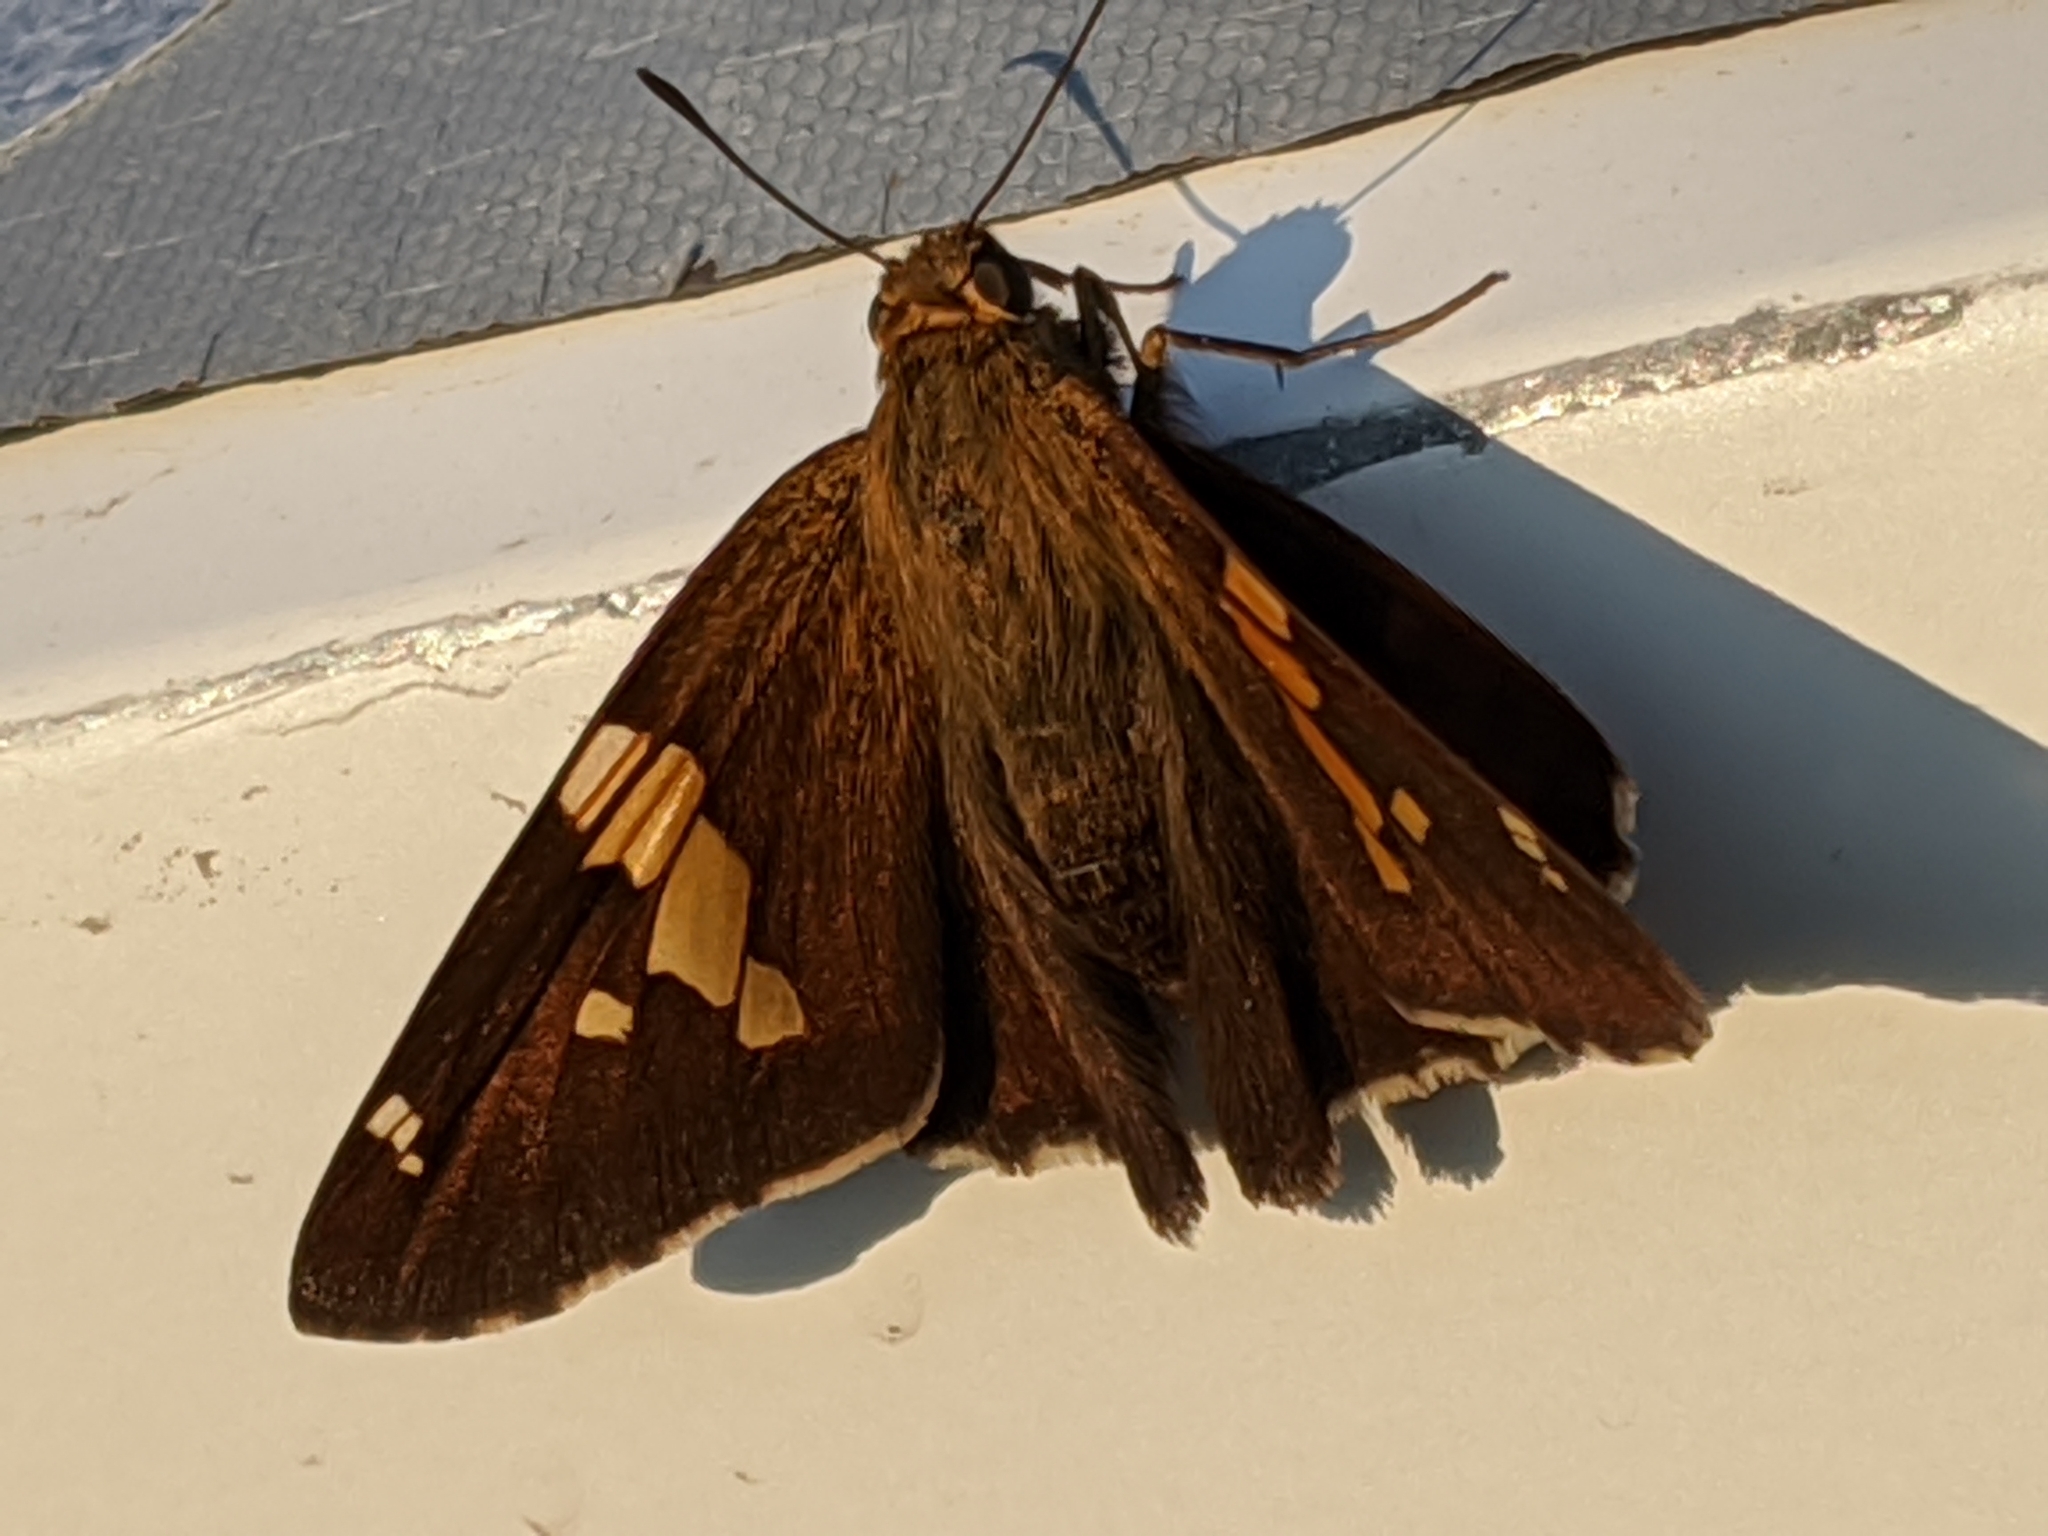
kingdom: Animalia
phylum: Arthropoda
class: Insecta
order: Lepidoptera
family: Hesperiidae
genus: Epargyreus
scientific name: Epargyreus clarus
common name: Silver-spotted skipper
